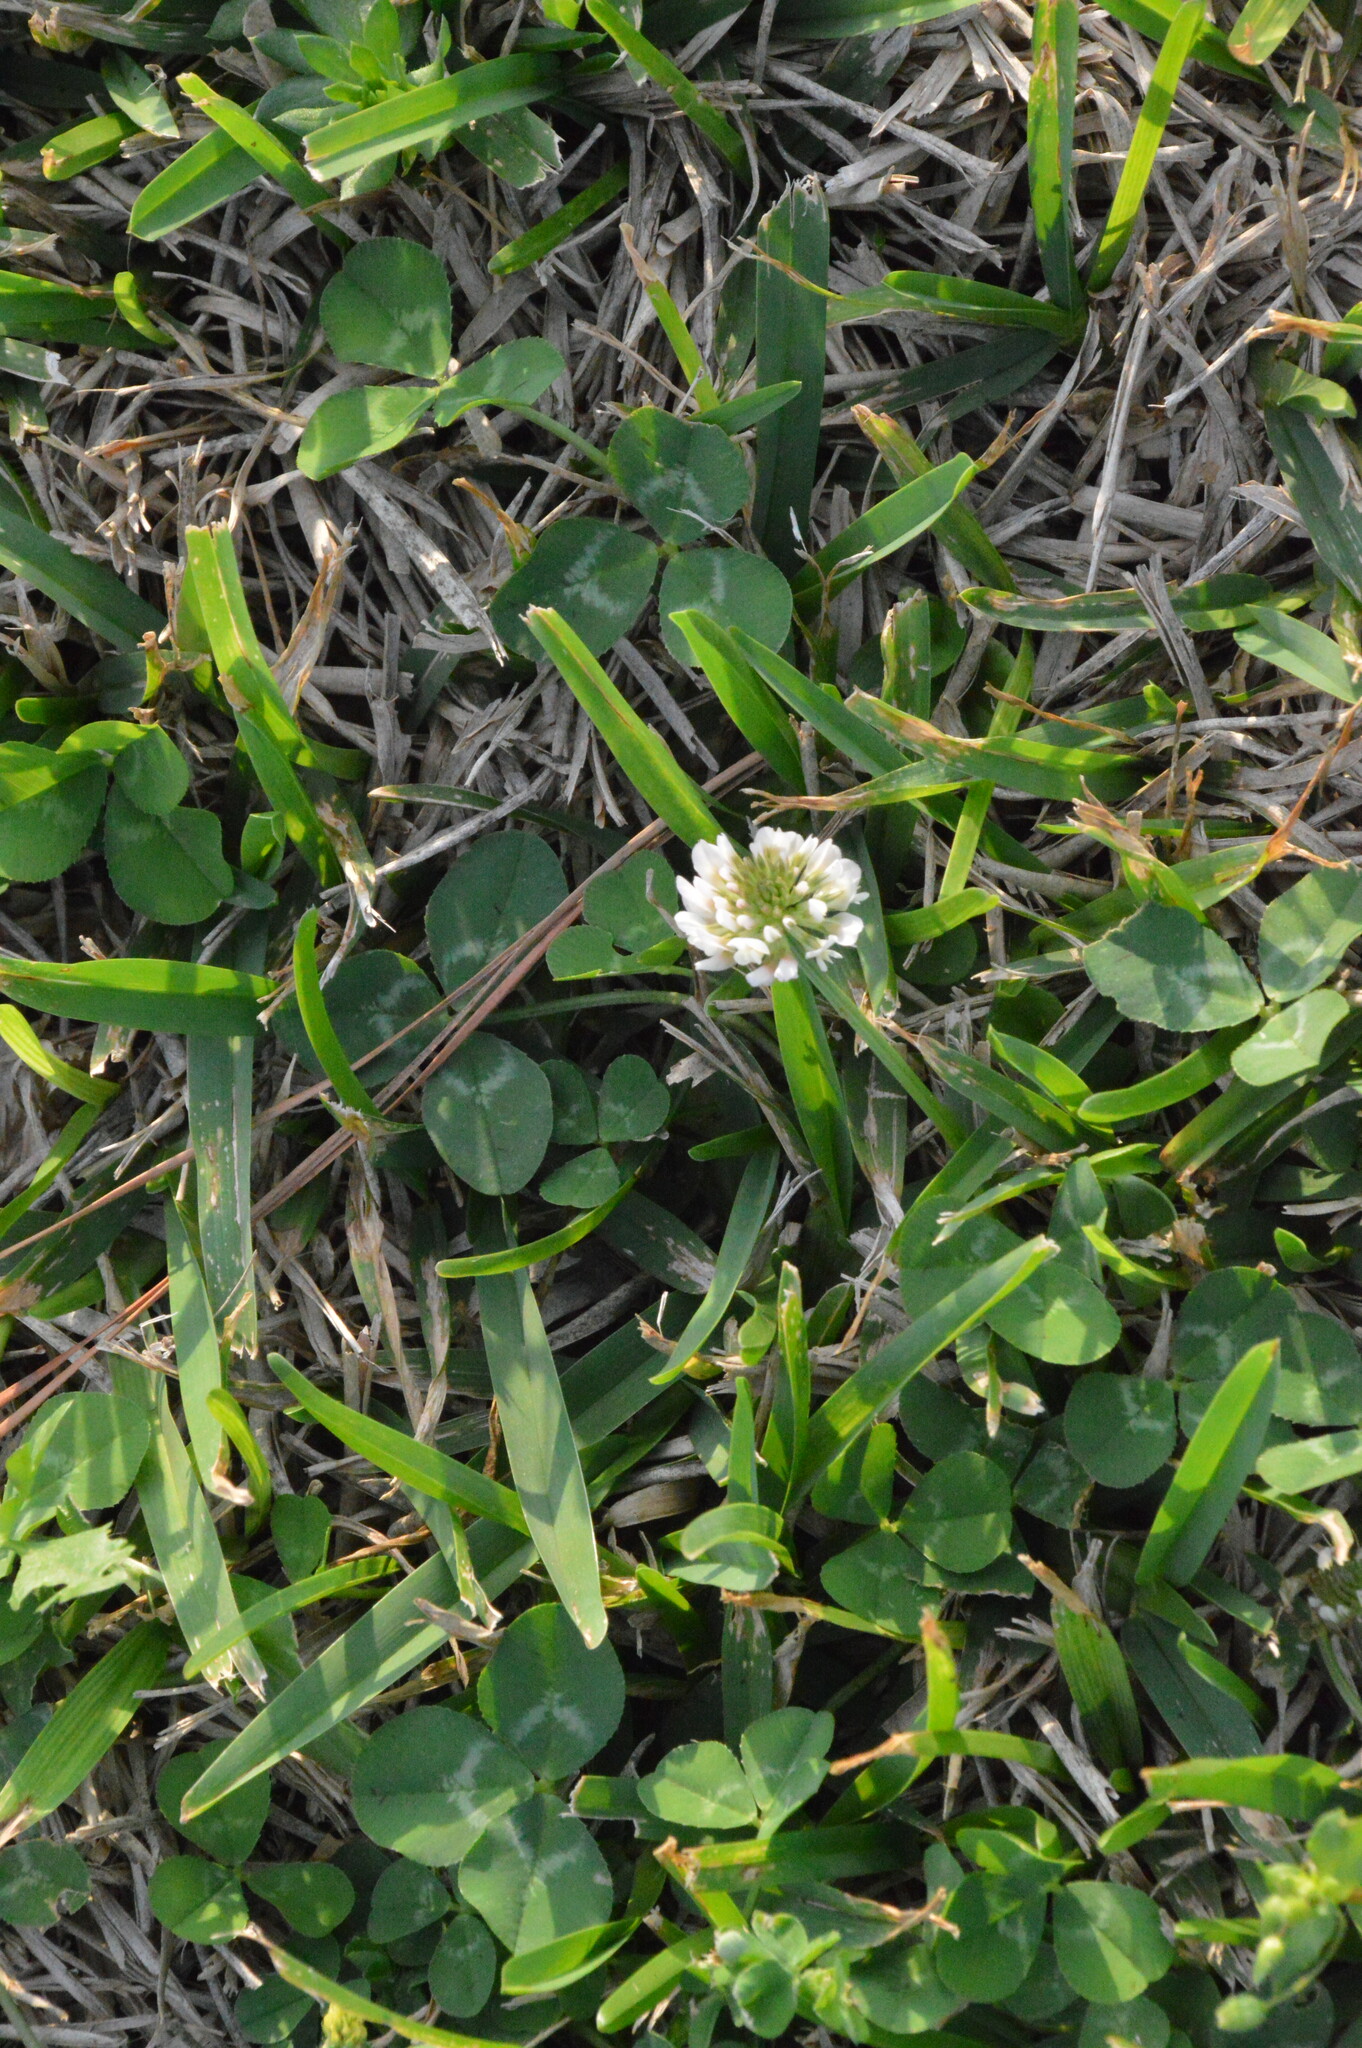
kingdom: Plantae
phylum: Tracheophyta
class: Magnoliopsida
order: Fabales
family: Fabaceae
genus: Trifolium
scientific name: Trifolium repens
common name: White clover
